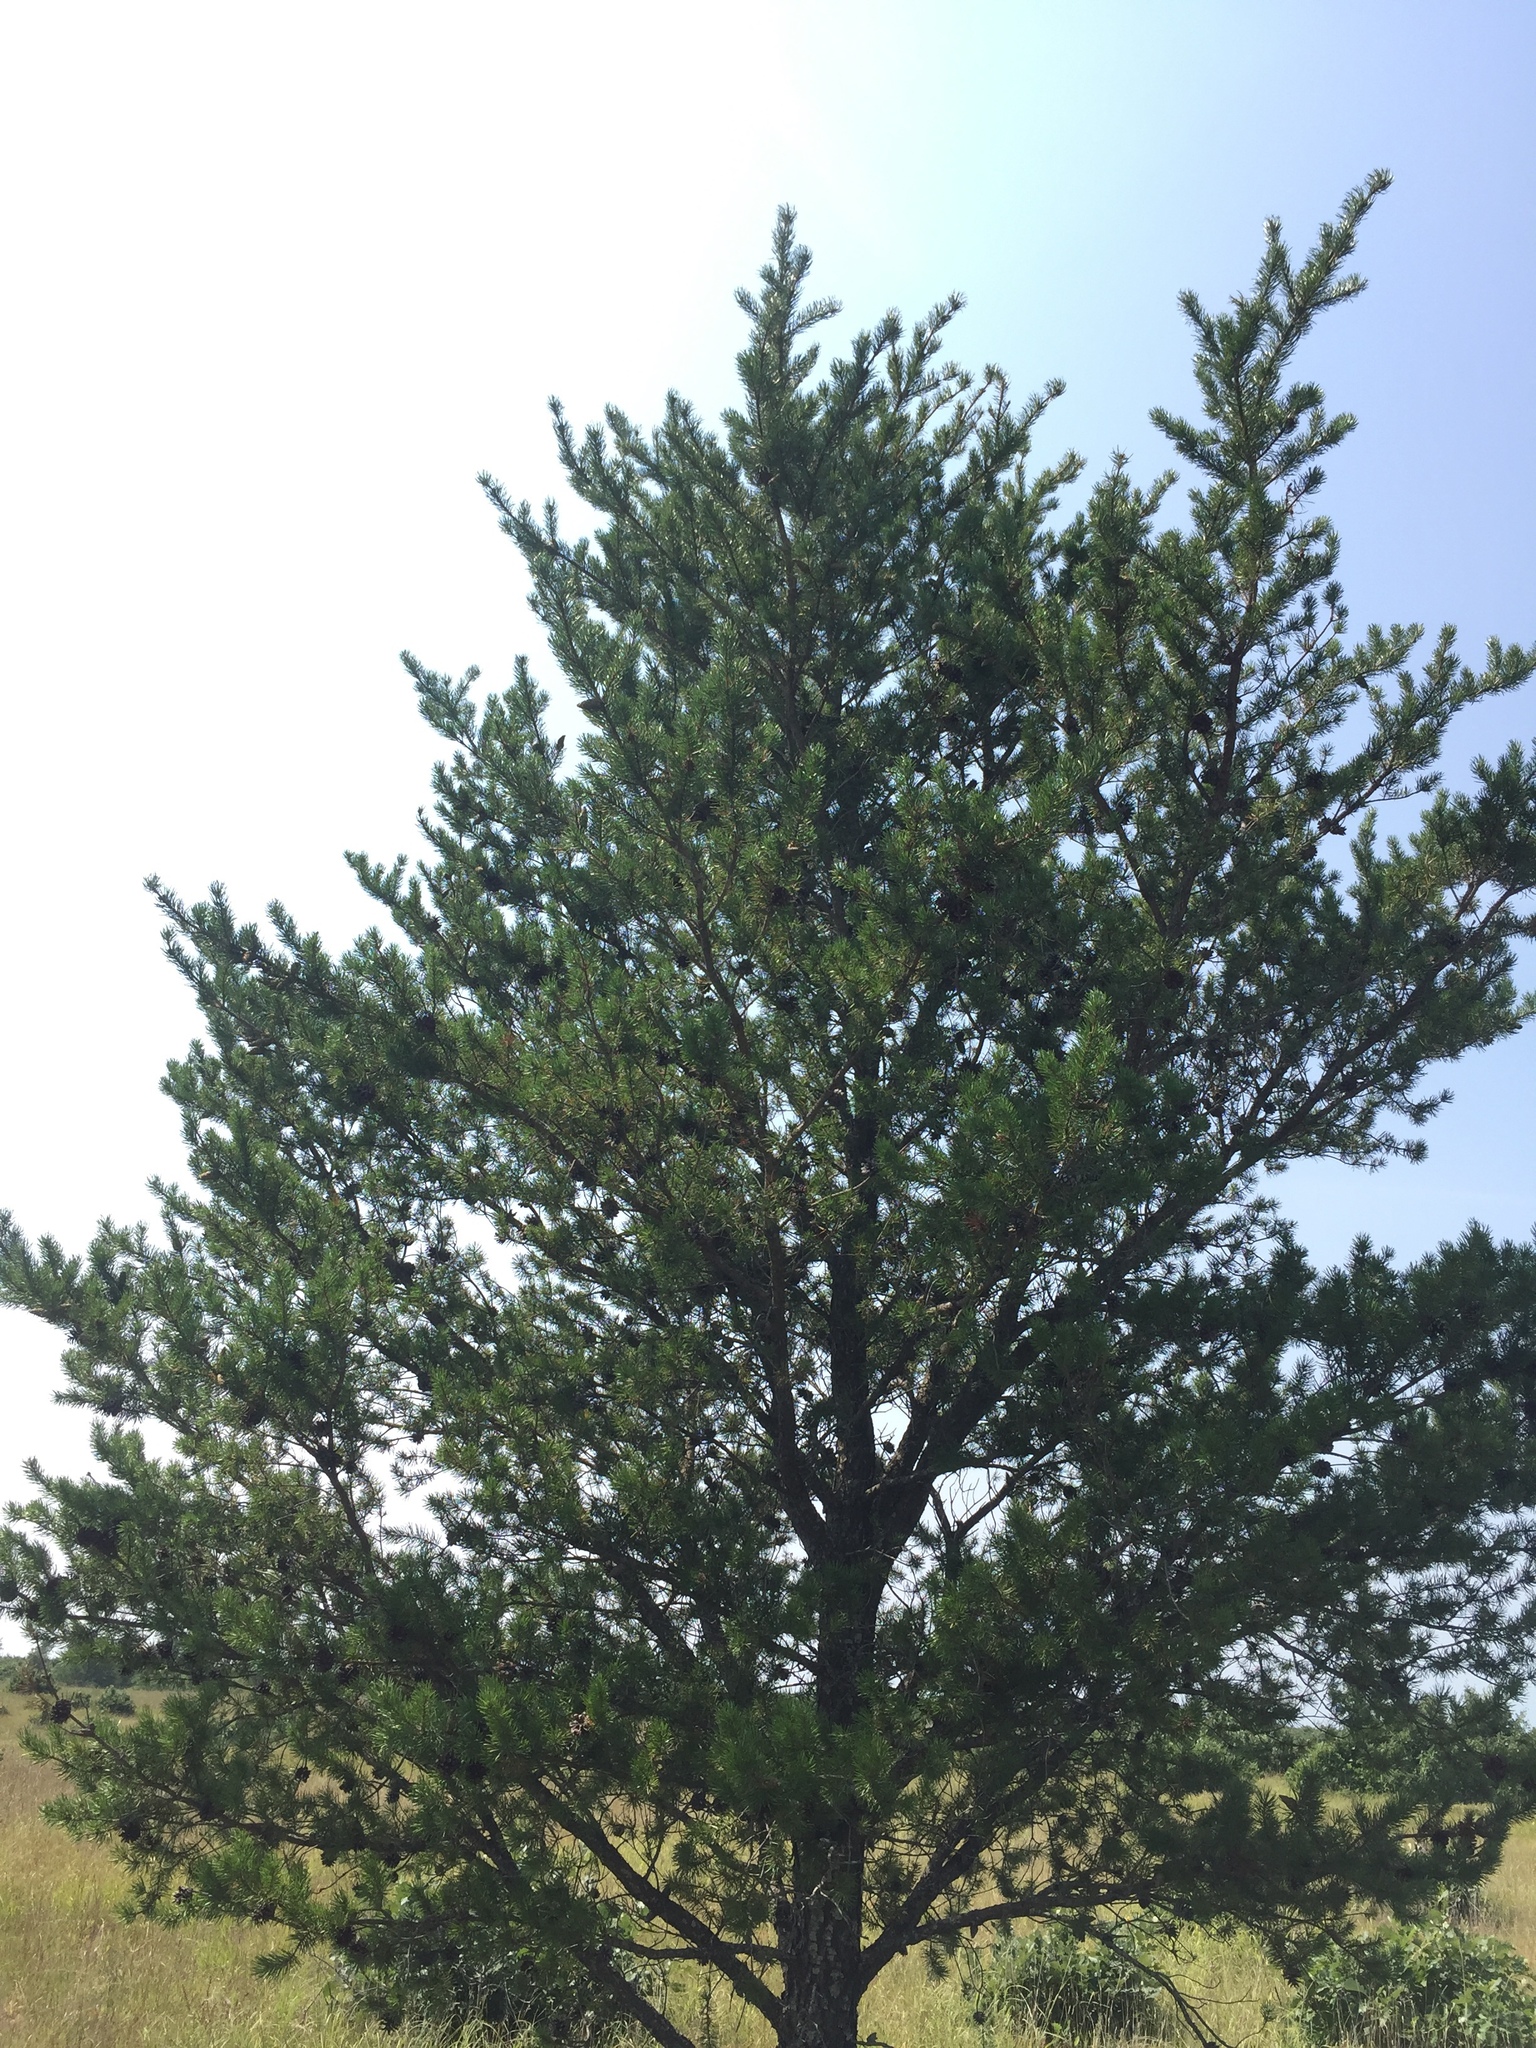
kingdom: Plantae
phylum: Tracheophyta
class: Pinopsida
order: Pinales
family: Pinaceae
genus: Pinus
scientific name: Pinus banksiana
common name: Jack pine
